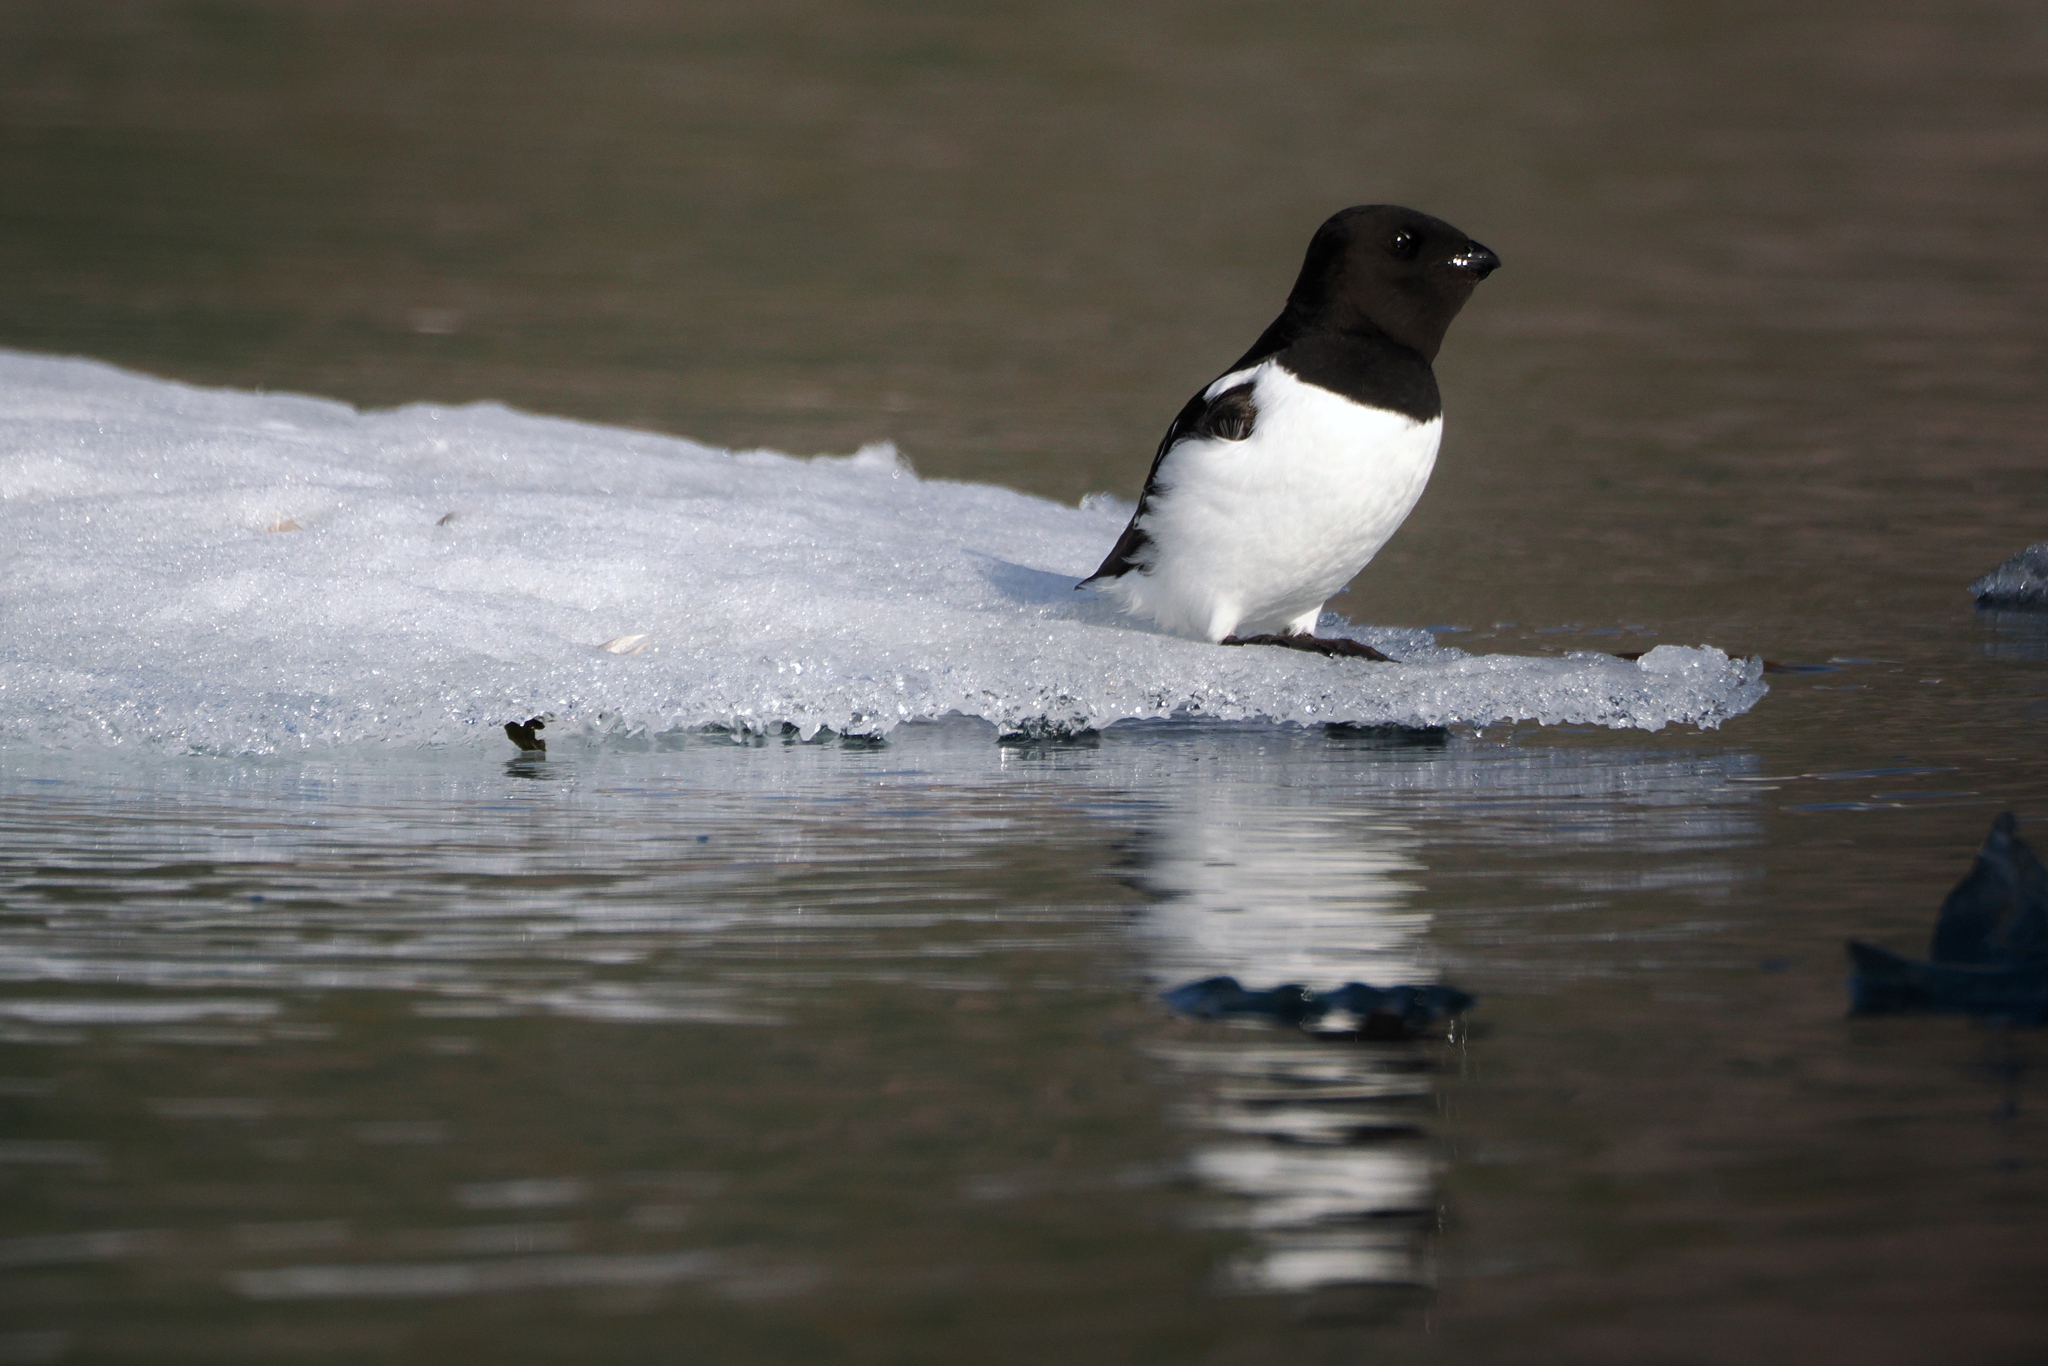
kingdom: Animalia
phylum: Chordata
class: Aves
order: Charadriiformes
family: Alcidae
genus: Alle
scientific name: Alle alle
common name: Little auk
